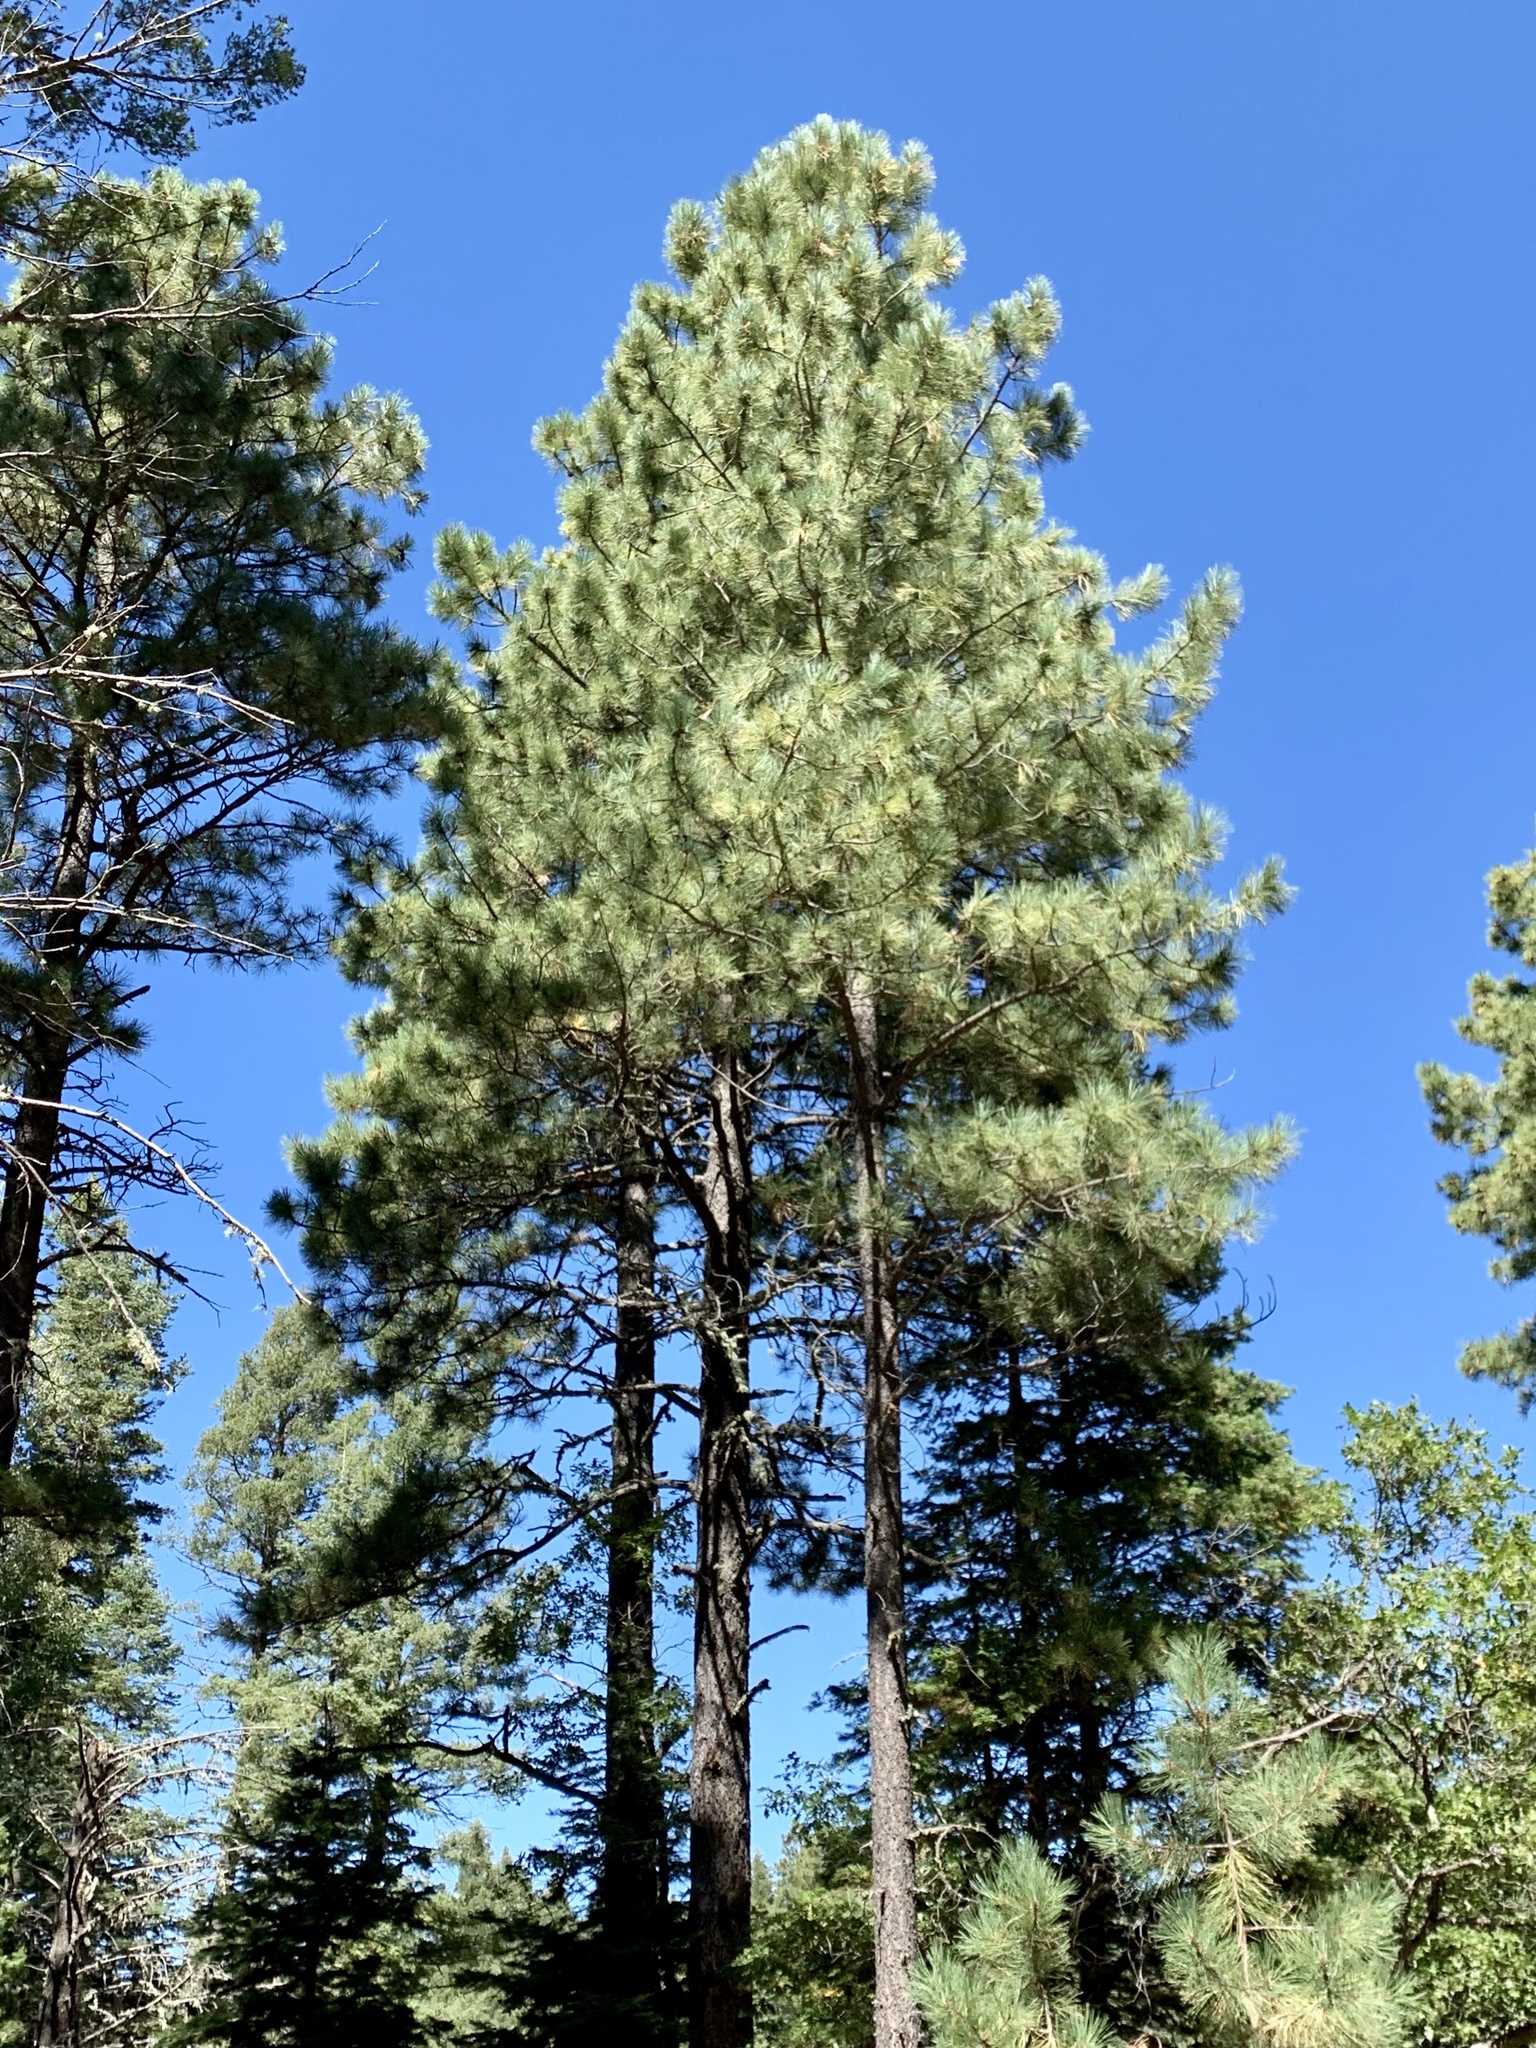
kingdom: Plantae
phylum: Tracheophyta
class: Pinopsida
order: Pinales
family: Pinaceae
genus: Pinus
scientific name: Pinus ponderosa
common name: Western yellow-pine
